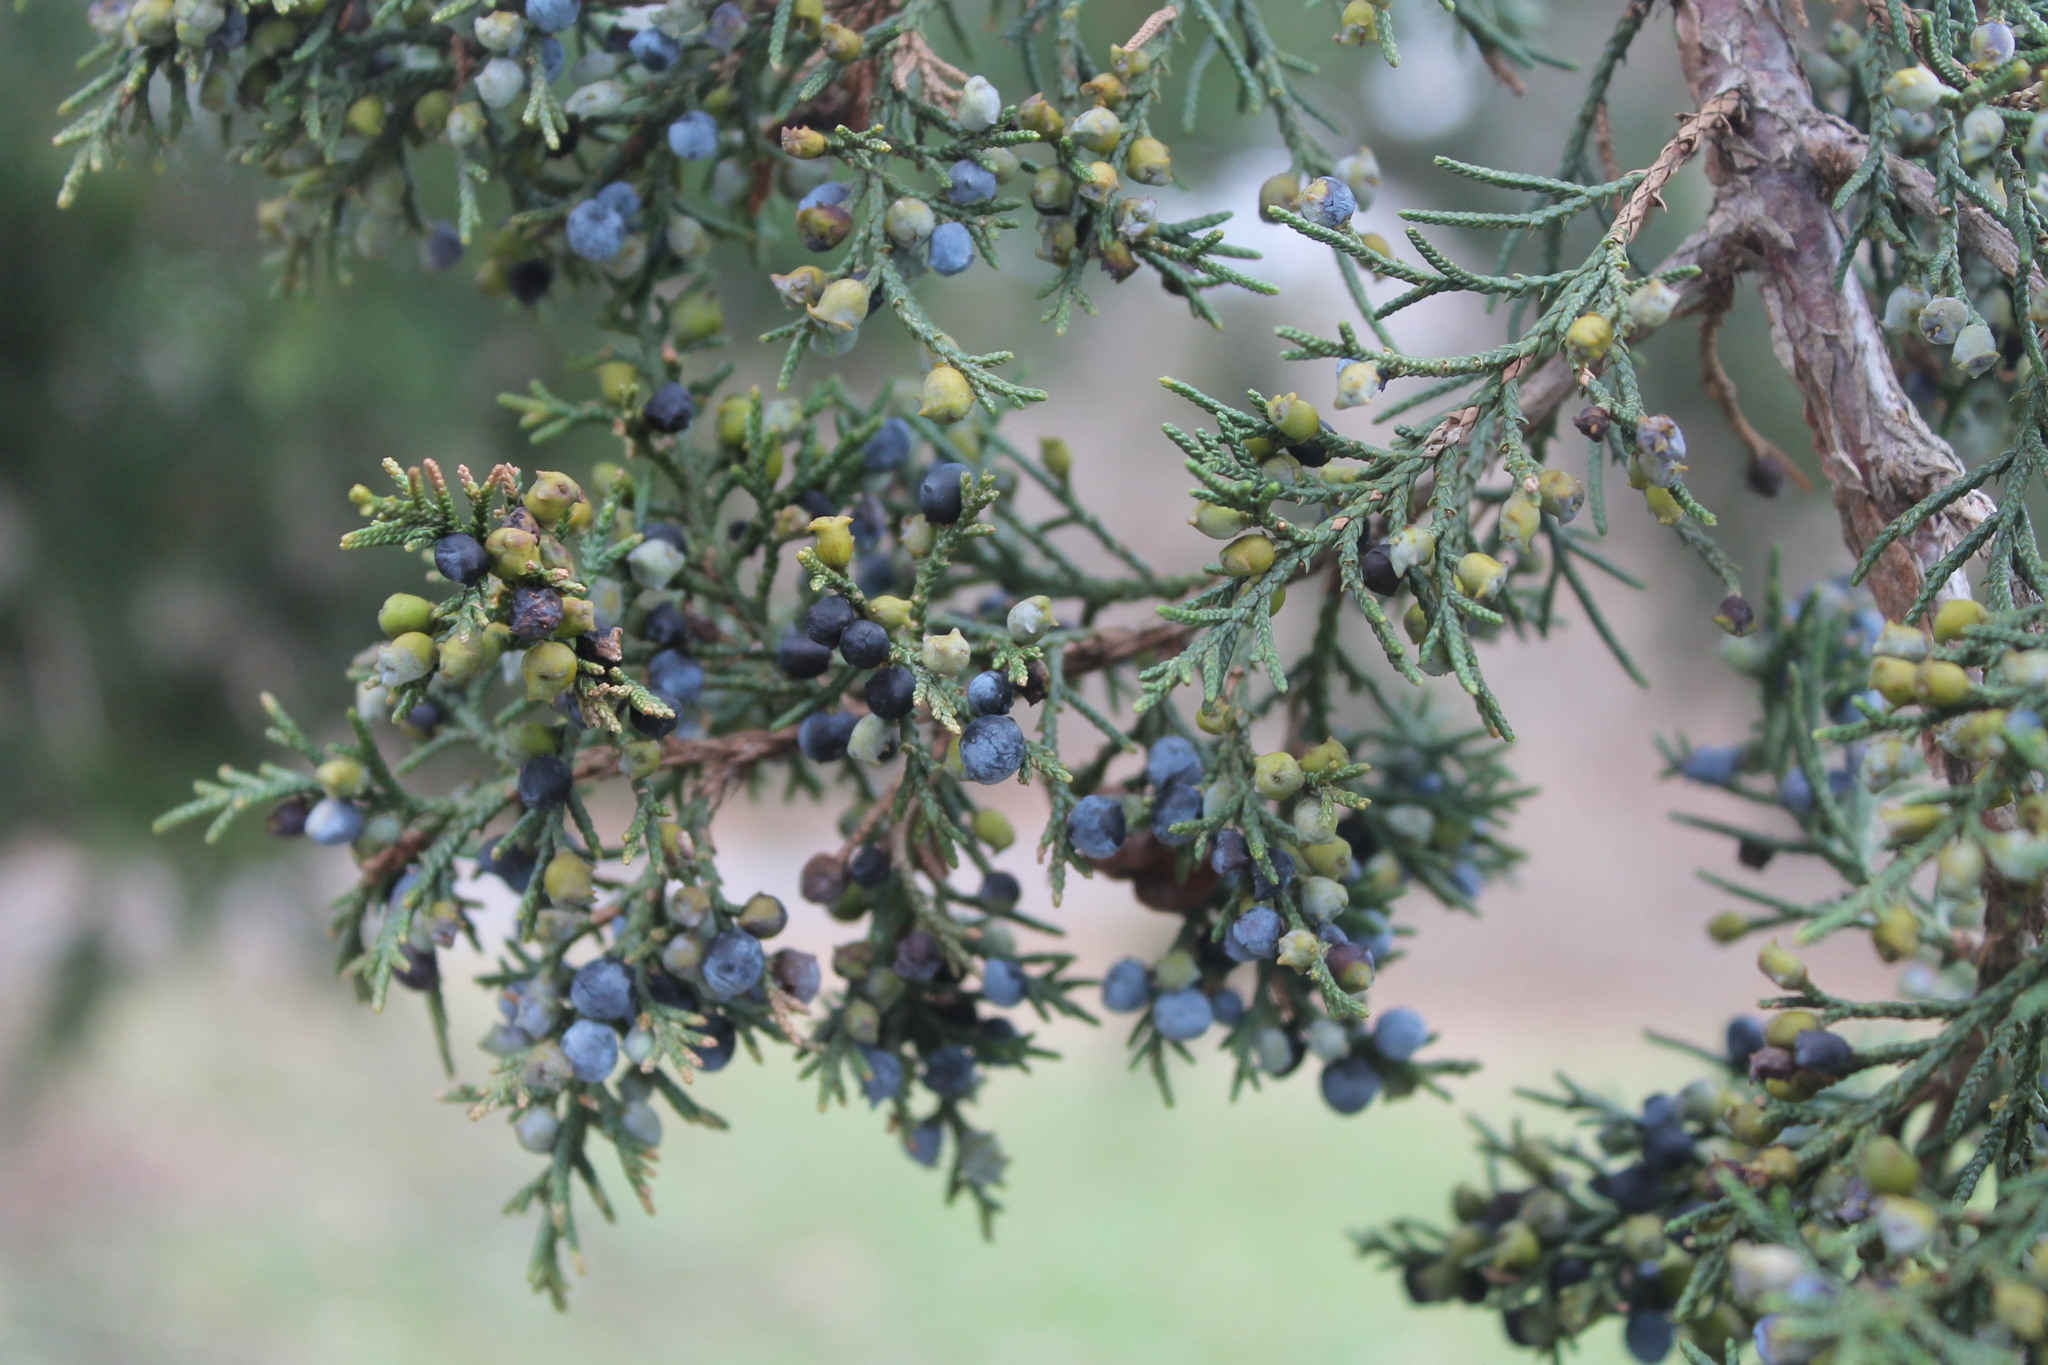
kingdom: Plantae
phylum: Tracheophyta
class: Pinopsida
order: Pinales
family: Cupressaceae
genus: Juniperus
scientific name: Juniperus virginiana
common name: Red juniper
